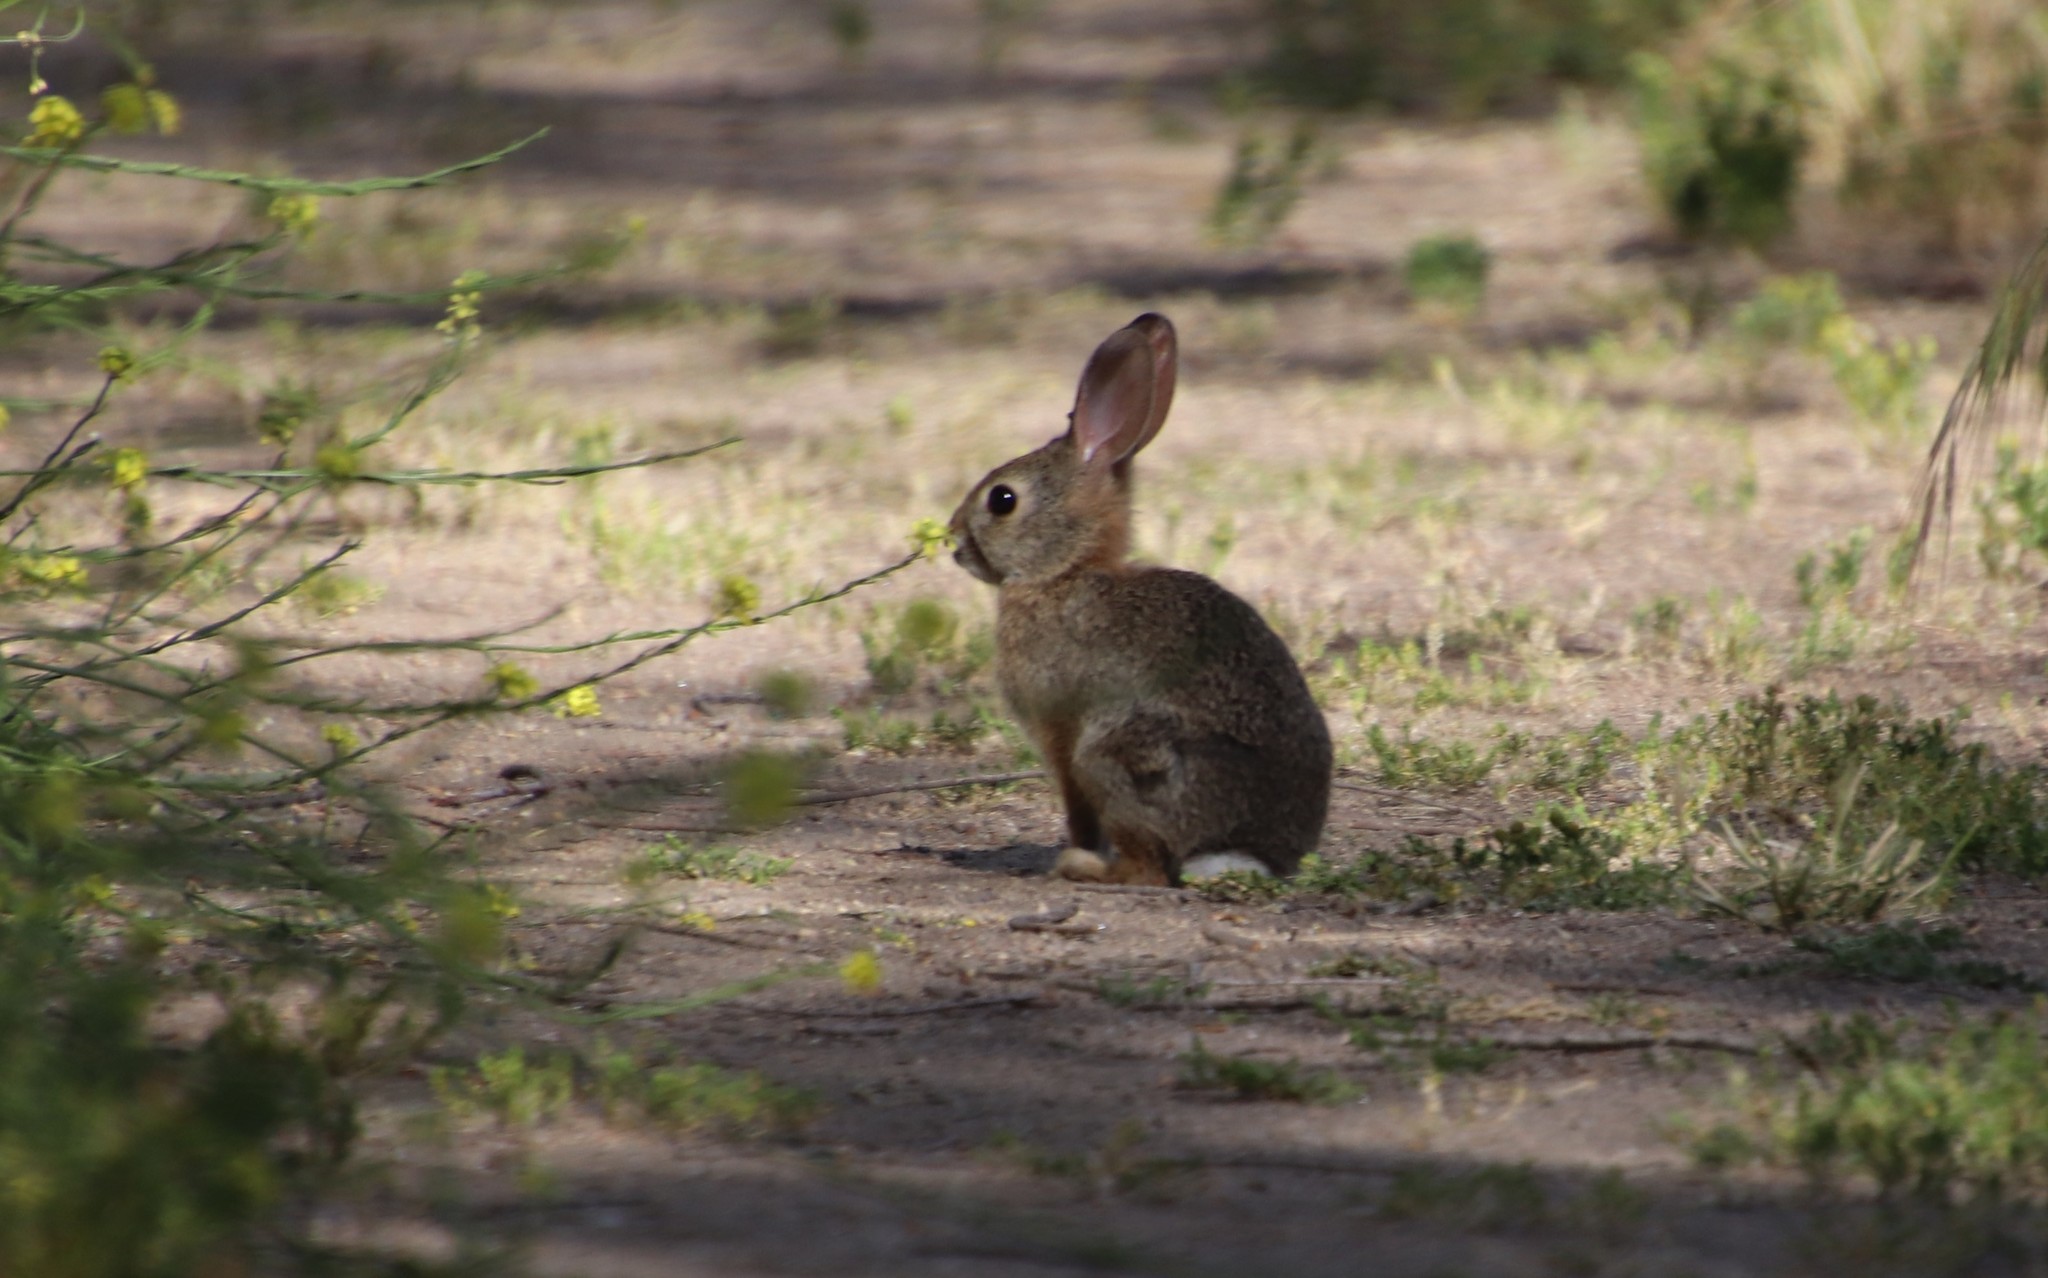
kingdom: Animalia
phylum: Chordata
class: Mammalia
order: Lagomorpha
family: Leporidae
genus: Sylvilagus
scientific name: Sylvilagus audubonii
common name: Desert cottontail
